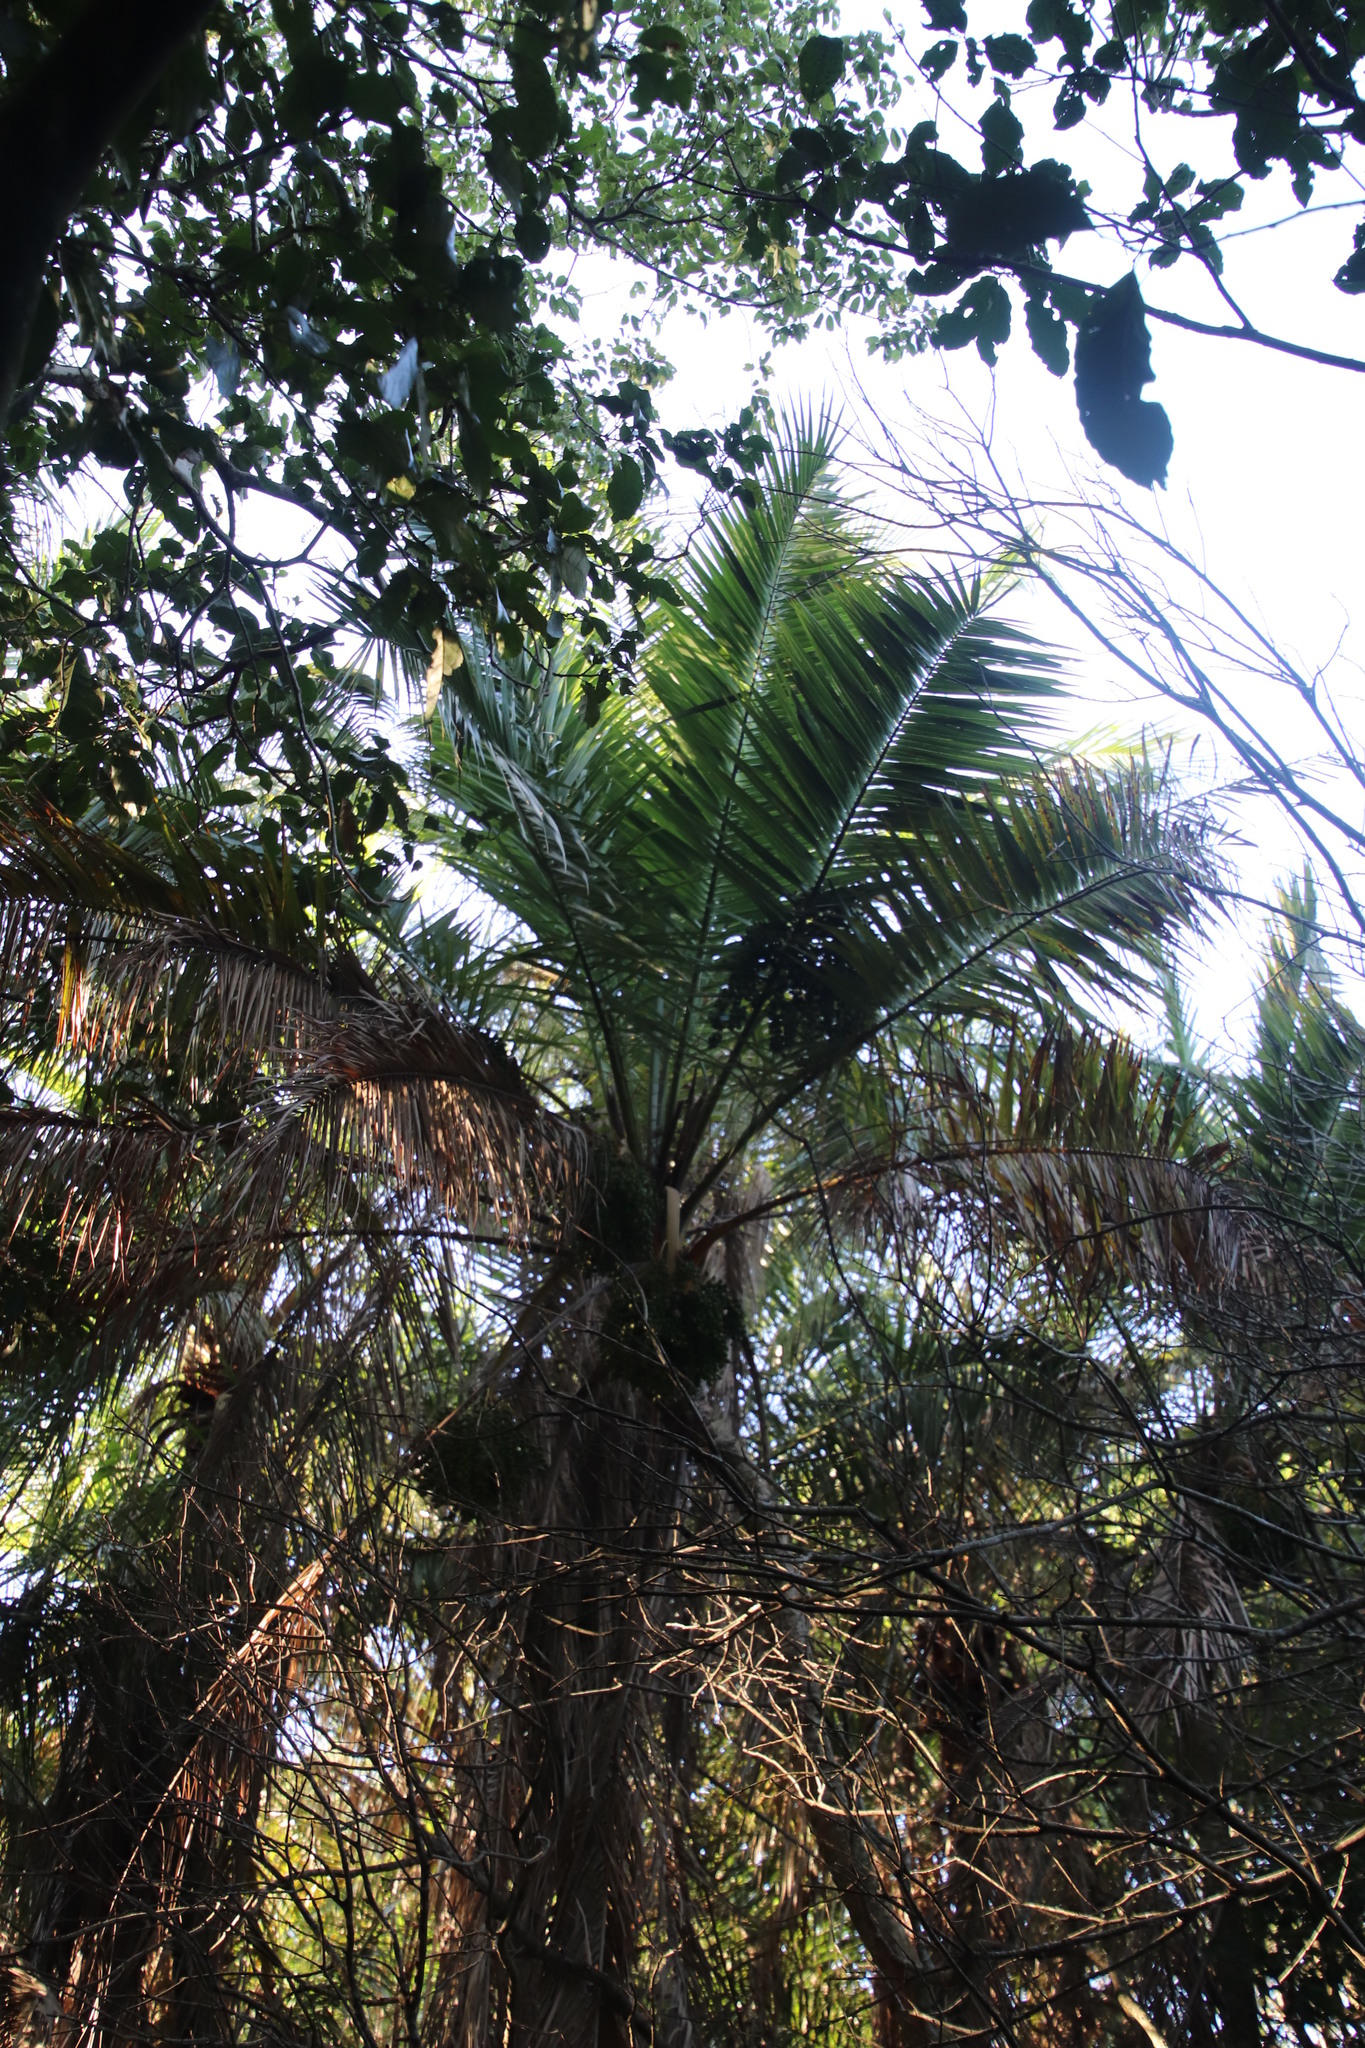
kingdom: Plantae
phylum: Tracheophyta
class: Liliopsida
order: Arecales
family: Arecaceae
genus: Phoenix
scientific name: Phoenix reclinata
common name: Senegal date palm
